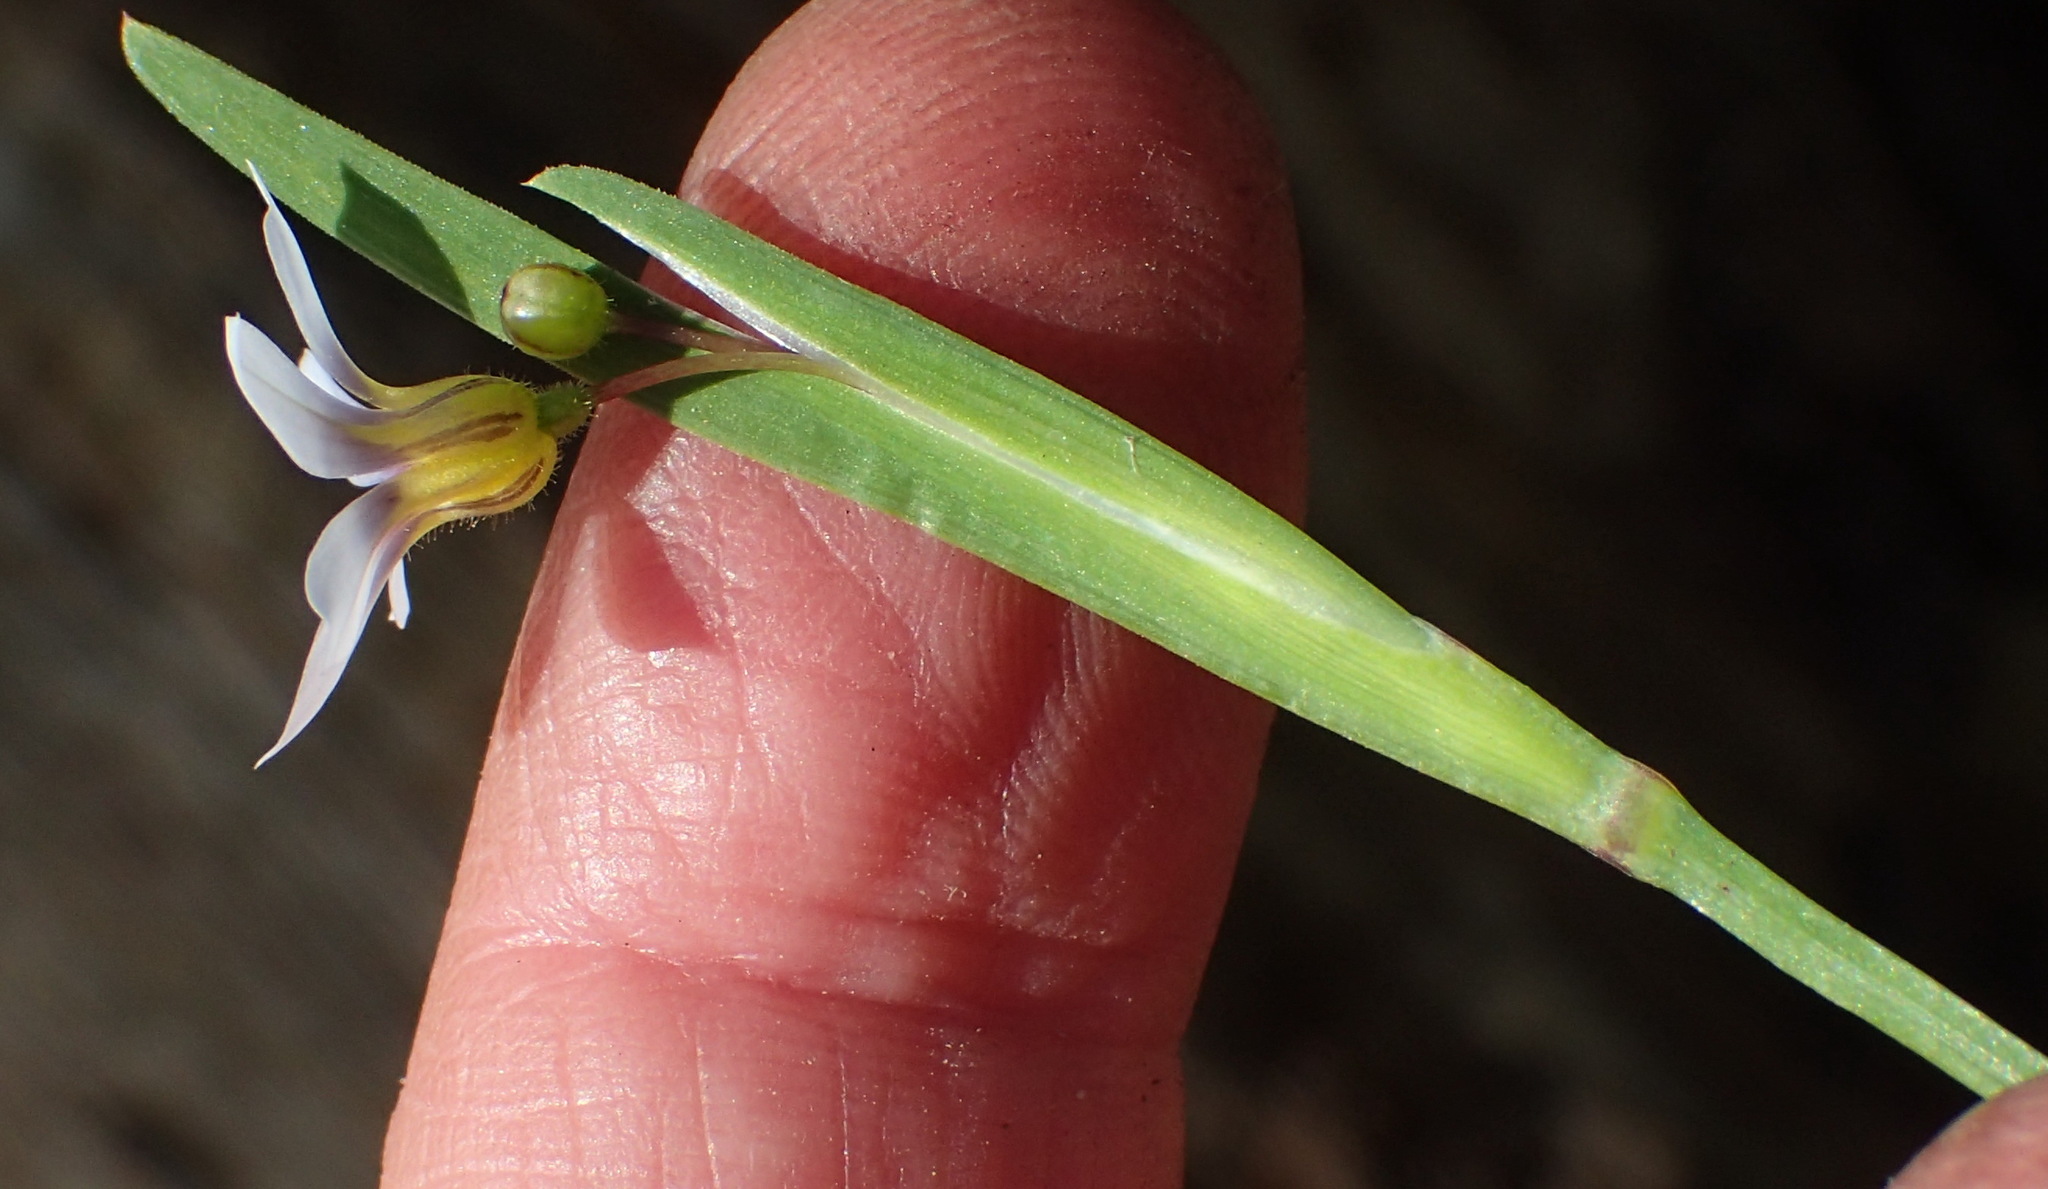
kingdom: Plantae
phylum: Tracheophyta
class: Liliopsida
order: Asparagales
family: Iridaceae
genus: Sisyrinchium
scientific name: Sisyrinchium micranthum
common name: Bermuda pigroot
